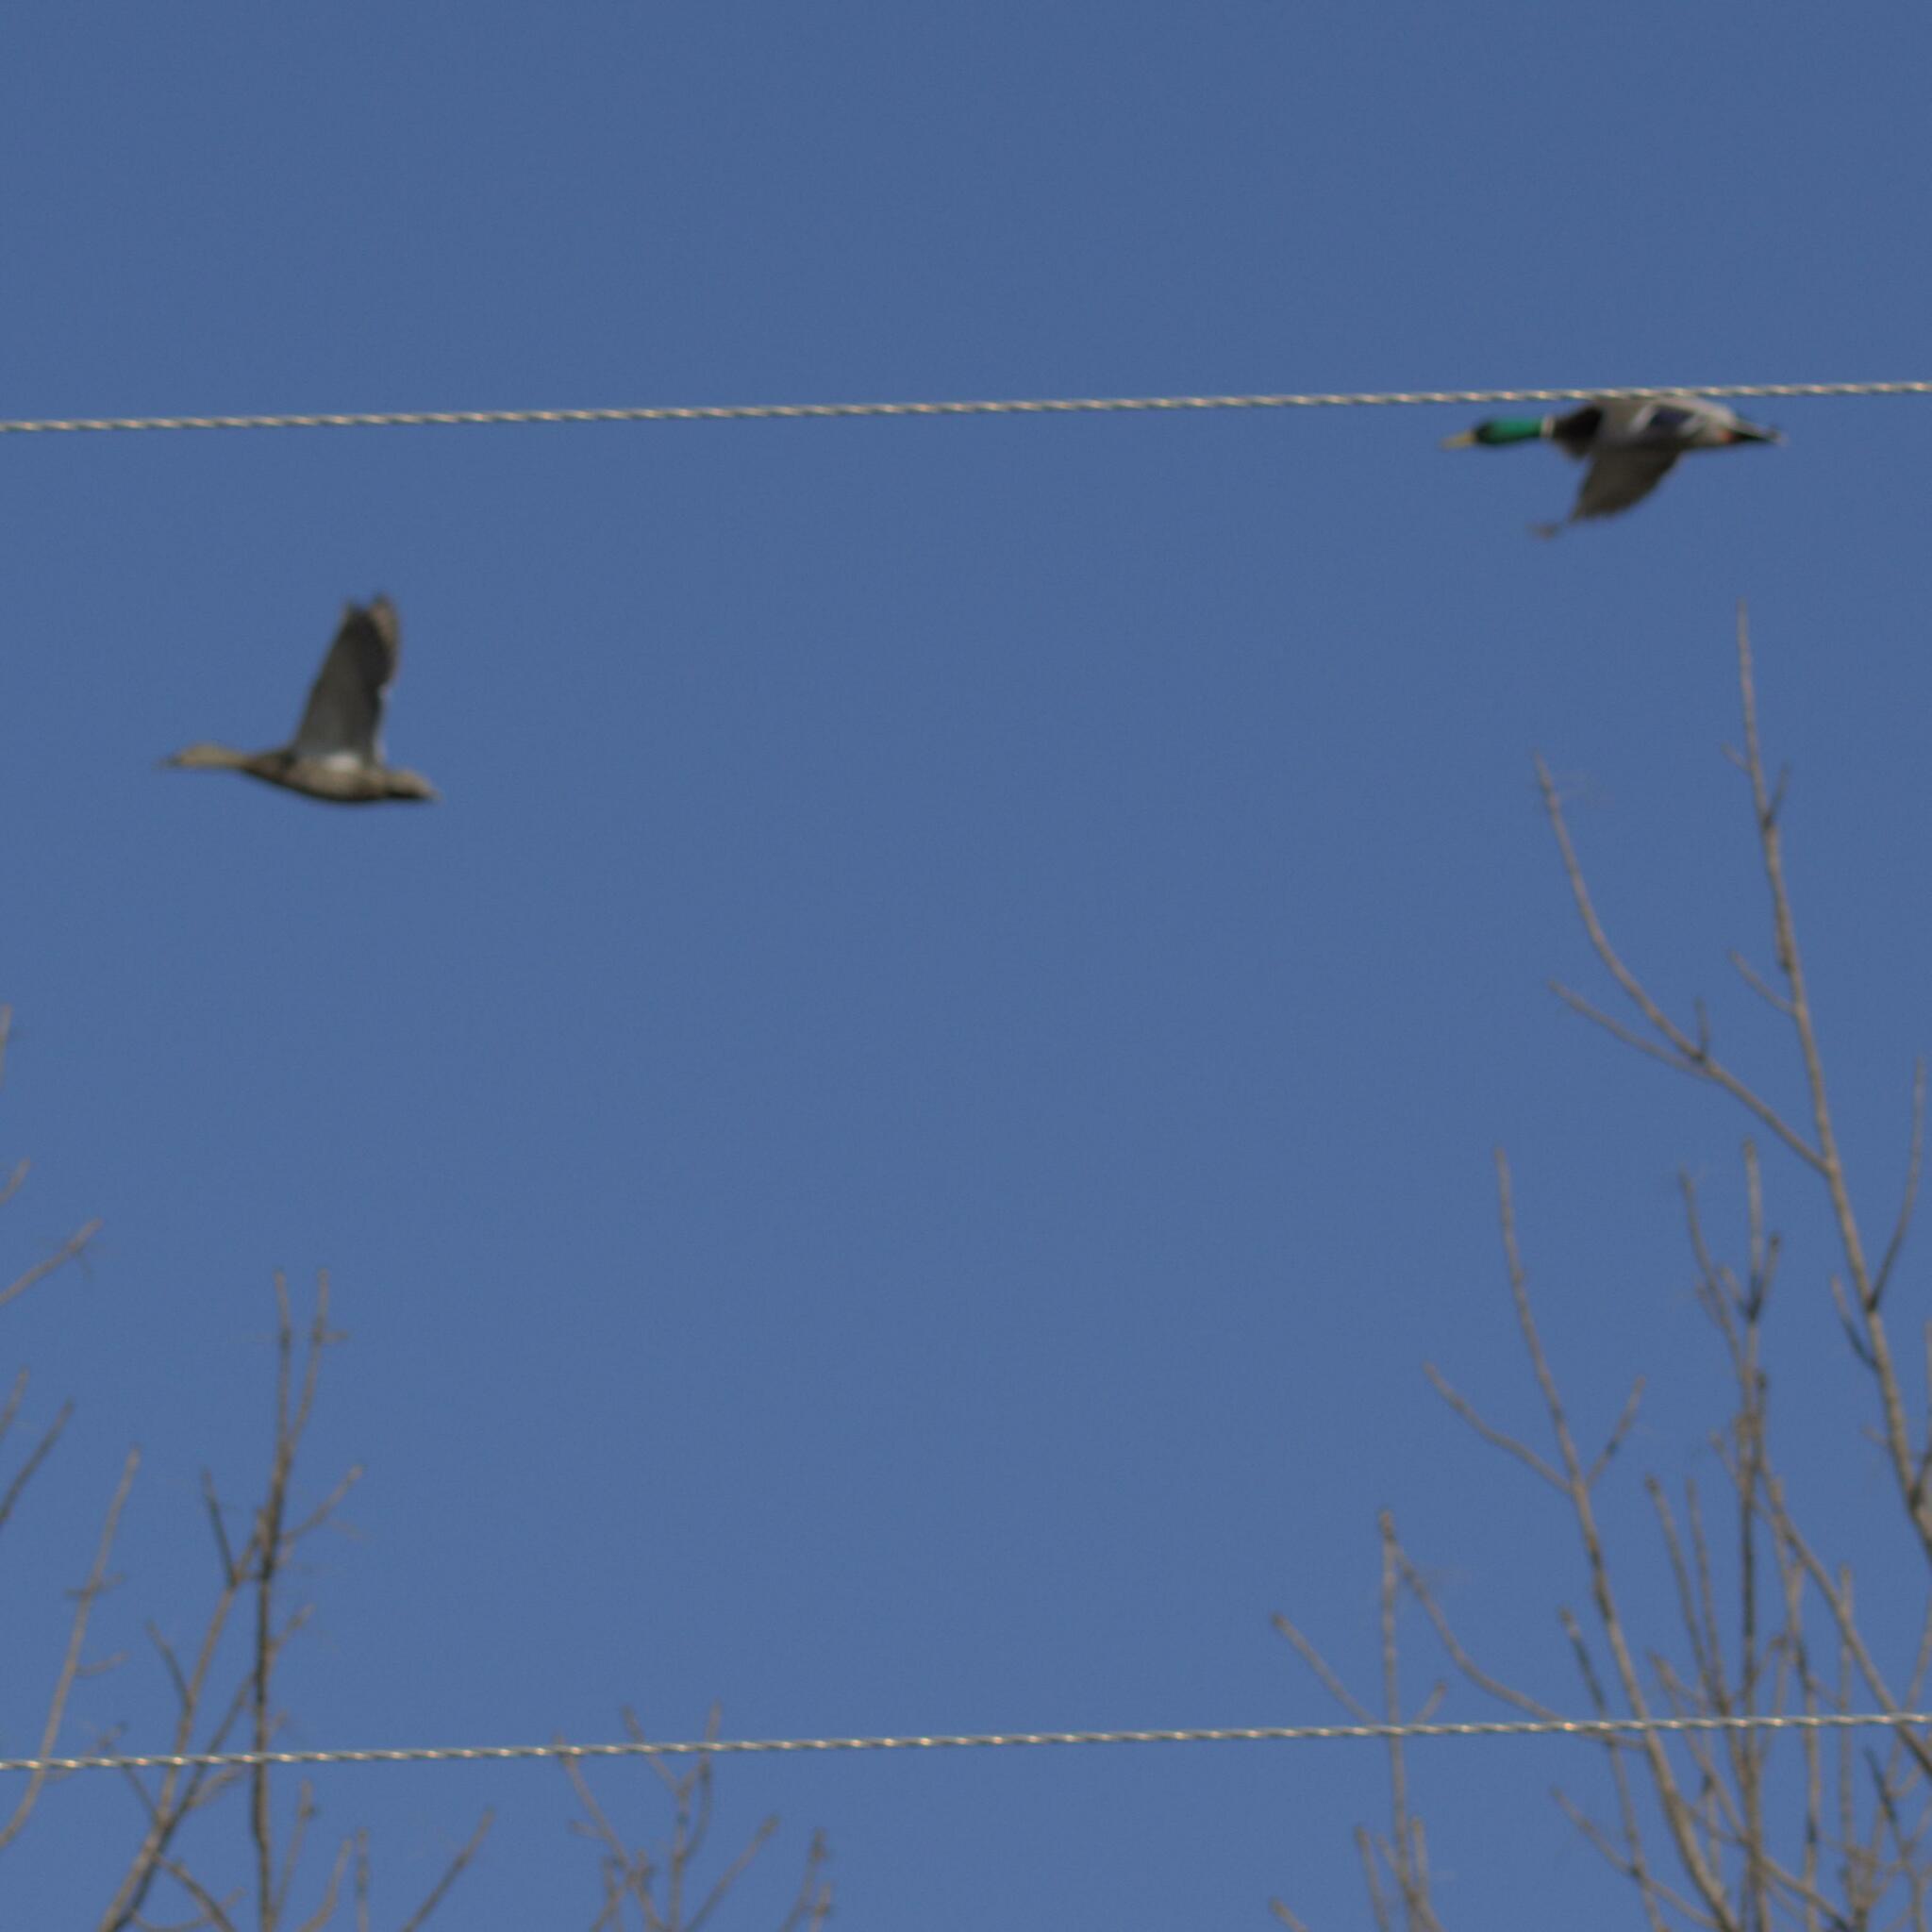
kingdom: Animalia
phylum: Chordata
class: Aves
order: Anseriformes
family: Anatidae
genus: Anas
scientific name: Anas platyrhynchos
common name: Mallard
